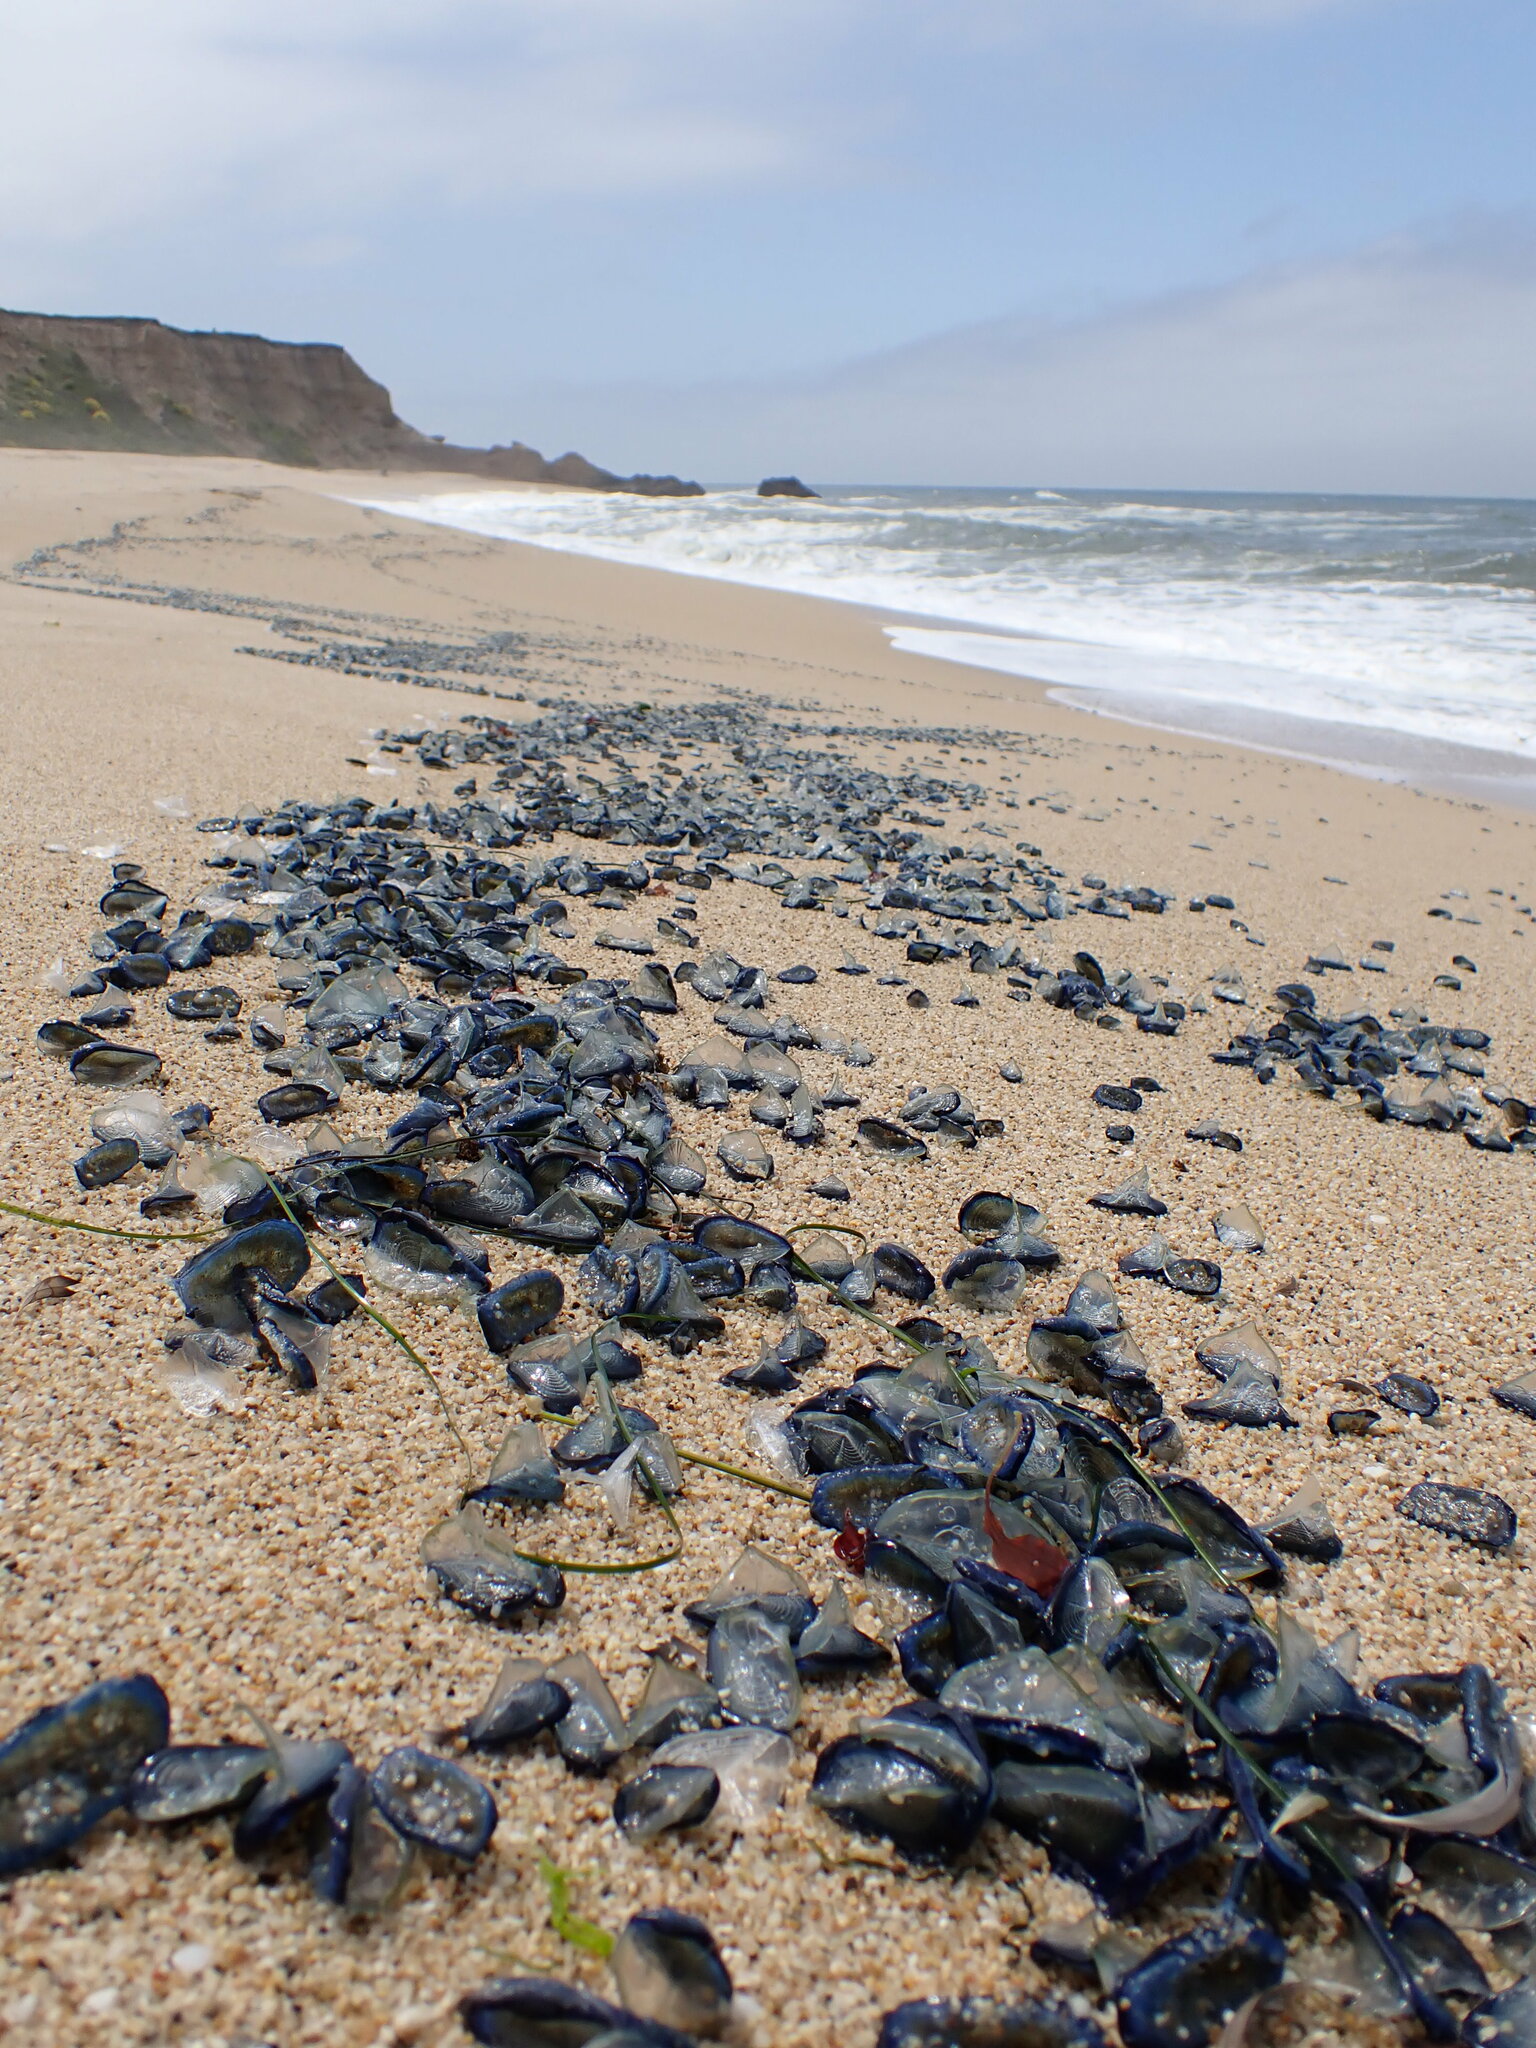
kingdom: Animalia
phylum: Cnidaria
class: Hydrozoa
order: Anthoathecata
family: Porpitidae
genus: Velella
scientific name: Velella velella
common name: By-the-wind-sailor
